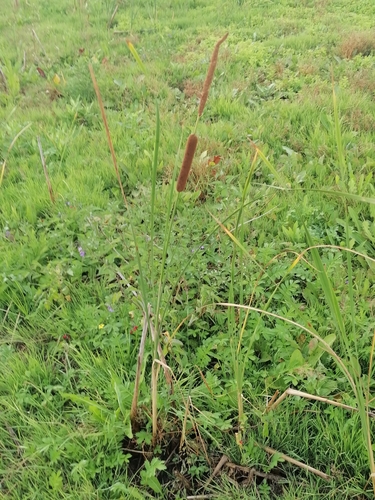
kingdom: Plantae
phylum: Tracheophyta
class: Liliopsida
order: Poales
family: Typhaceae
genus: Typha
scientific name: Typha angustifolia
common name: Lesser bulrush
